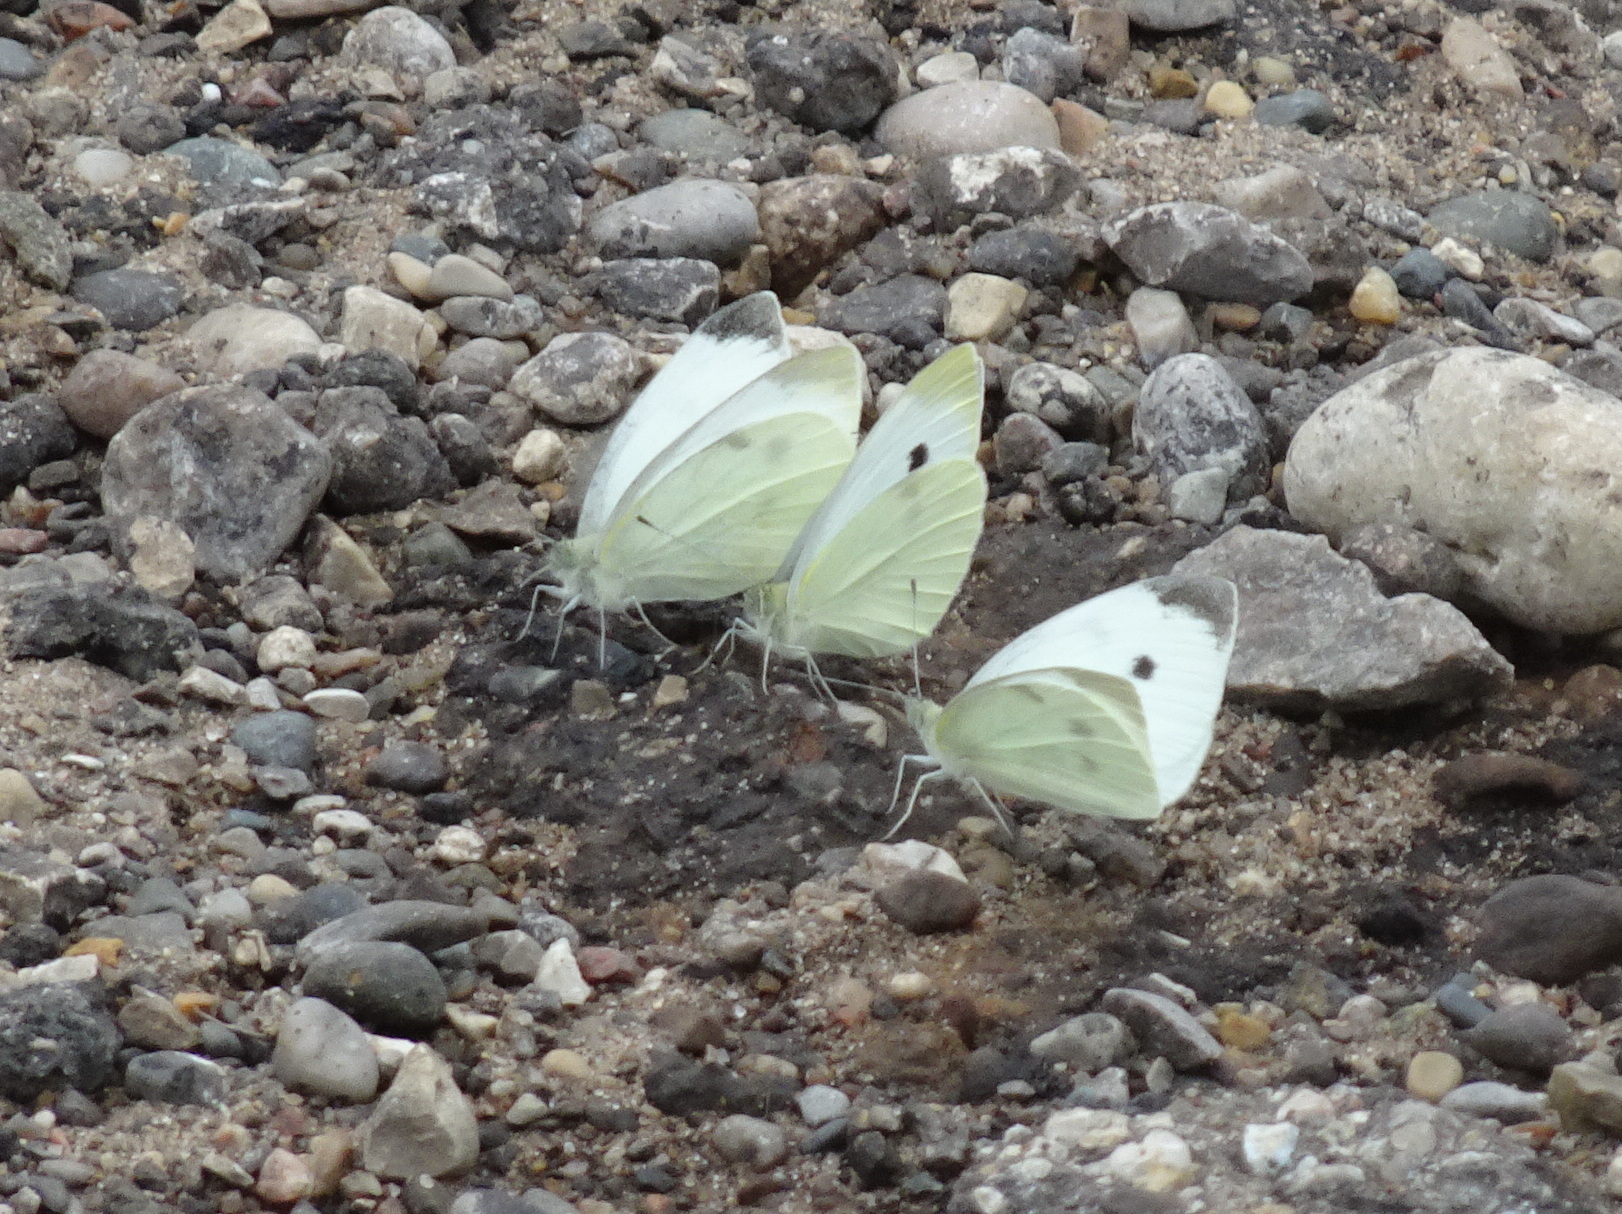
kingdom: Animalia
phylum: Arthropoda
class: Insecta
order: Lepidoptera
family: Pieridae
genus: Pieris
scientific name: Pieris rapae
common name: Small white
